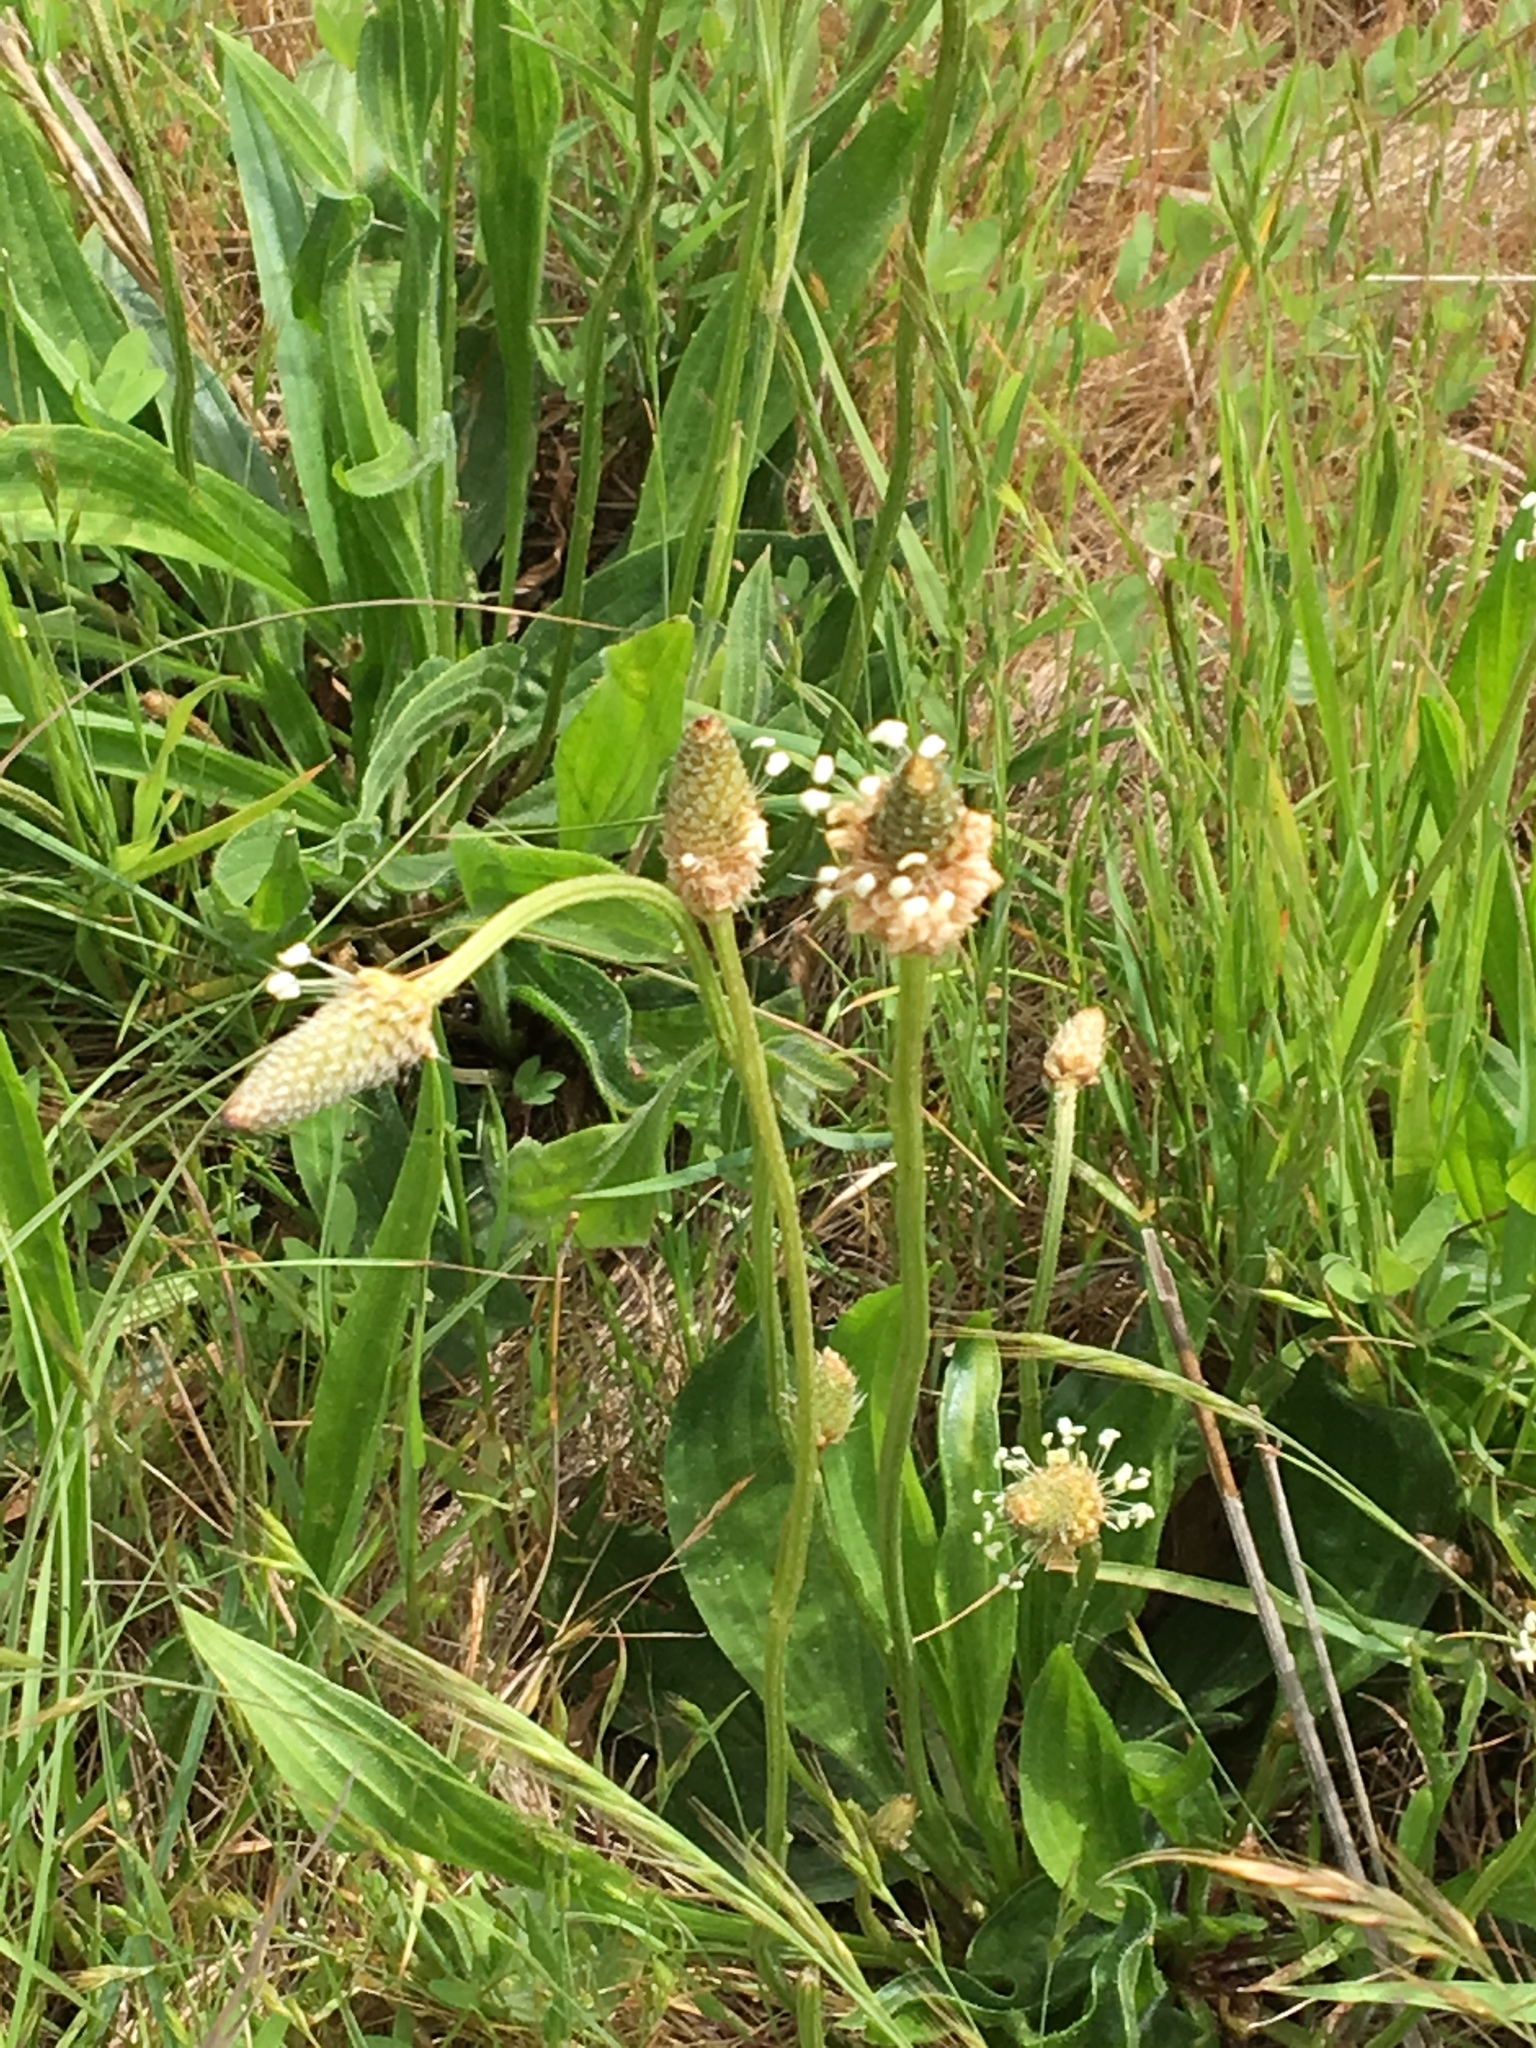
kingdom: Plantae
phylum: Tracheophyta
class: Magnoliopsida
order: Lamiales
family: Plantaginaceae
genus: Plantago
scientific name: Plantago lanceolata
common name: Ribwort plantain
